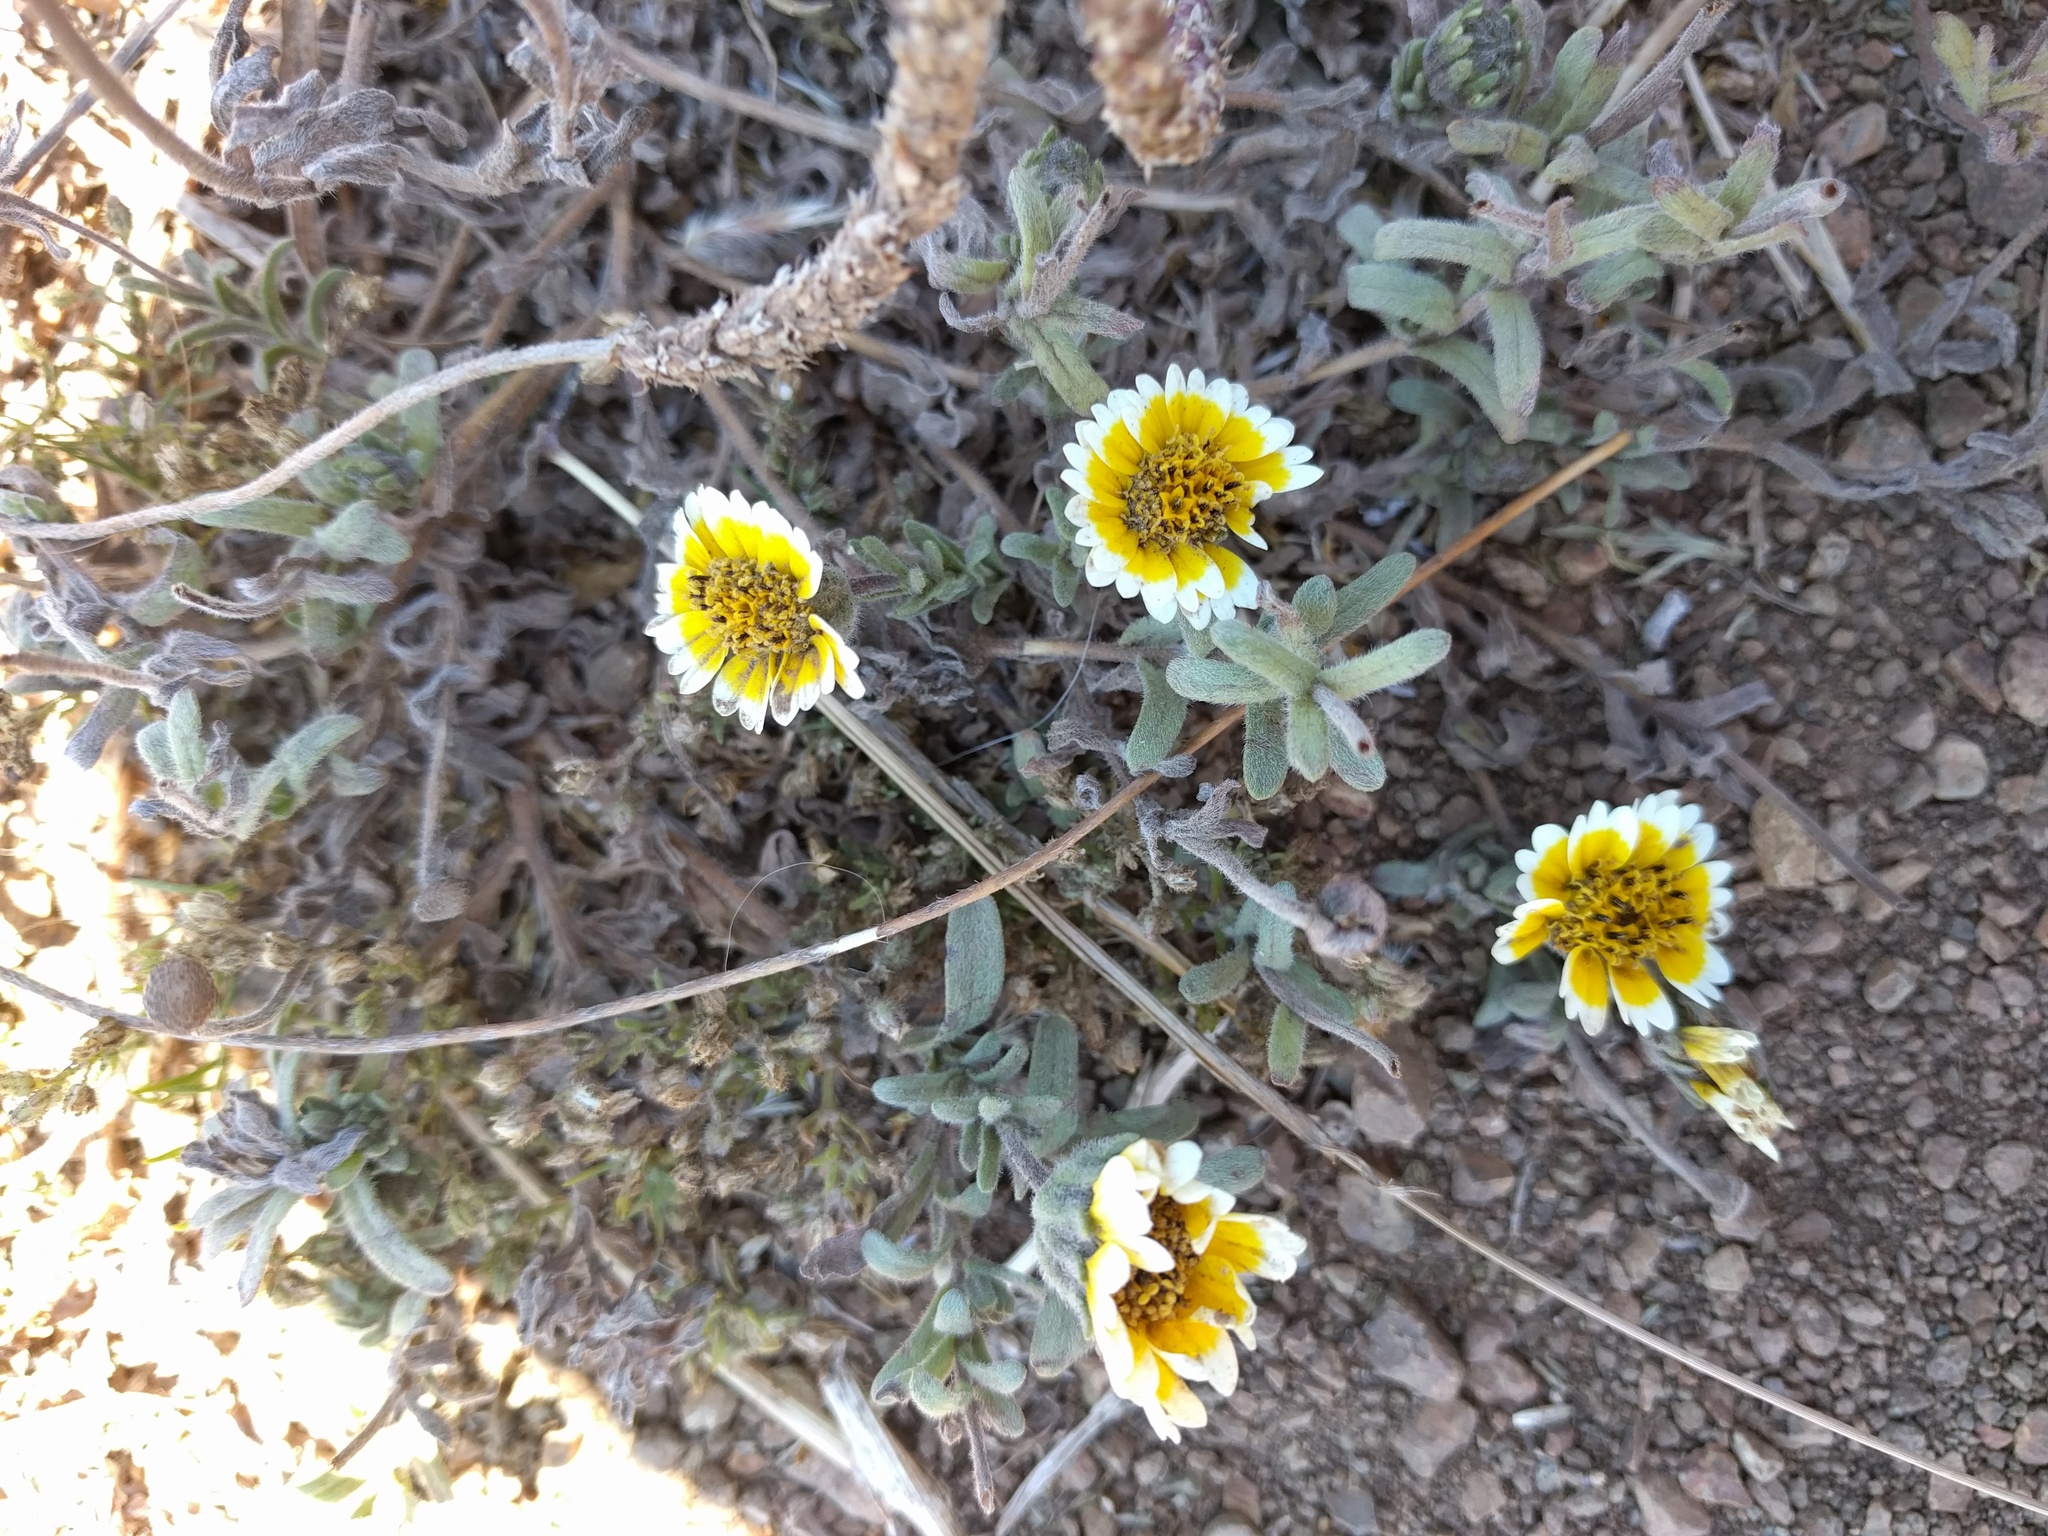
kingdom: Plantae
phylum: Tracheophyta
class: Magnoliopsida
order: Asterales
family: Asteraceae
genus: Layia
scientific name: Layia platyglossa
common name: Tidy-tips
